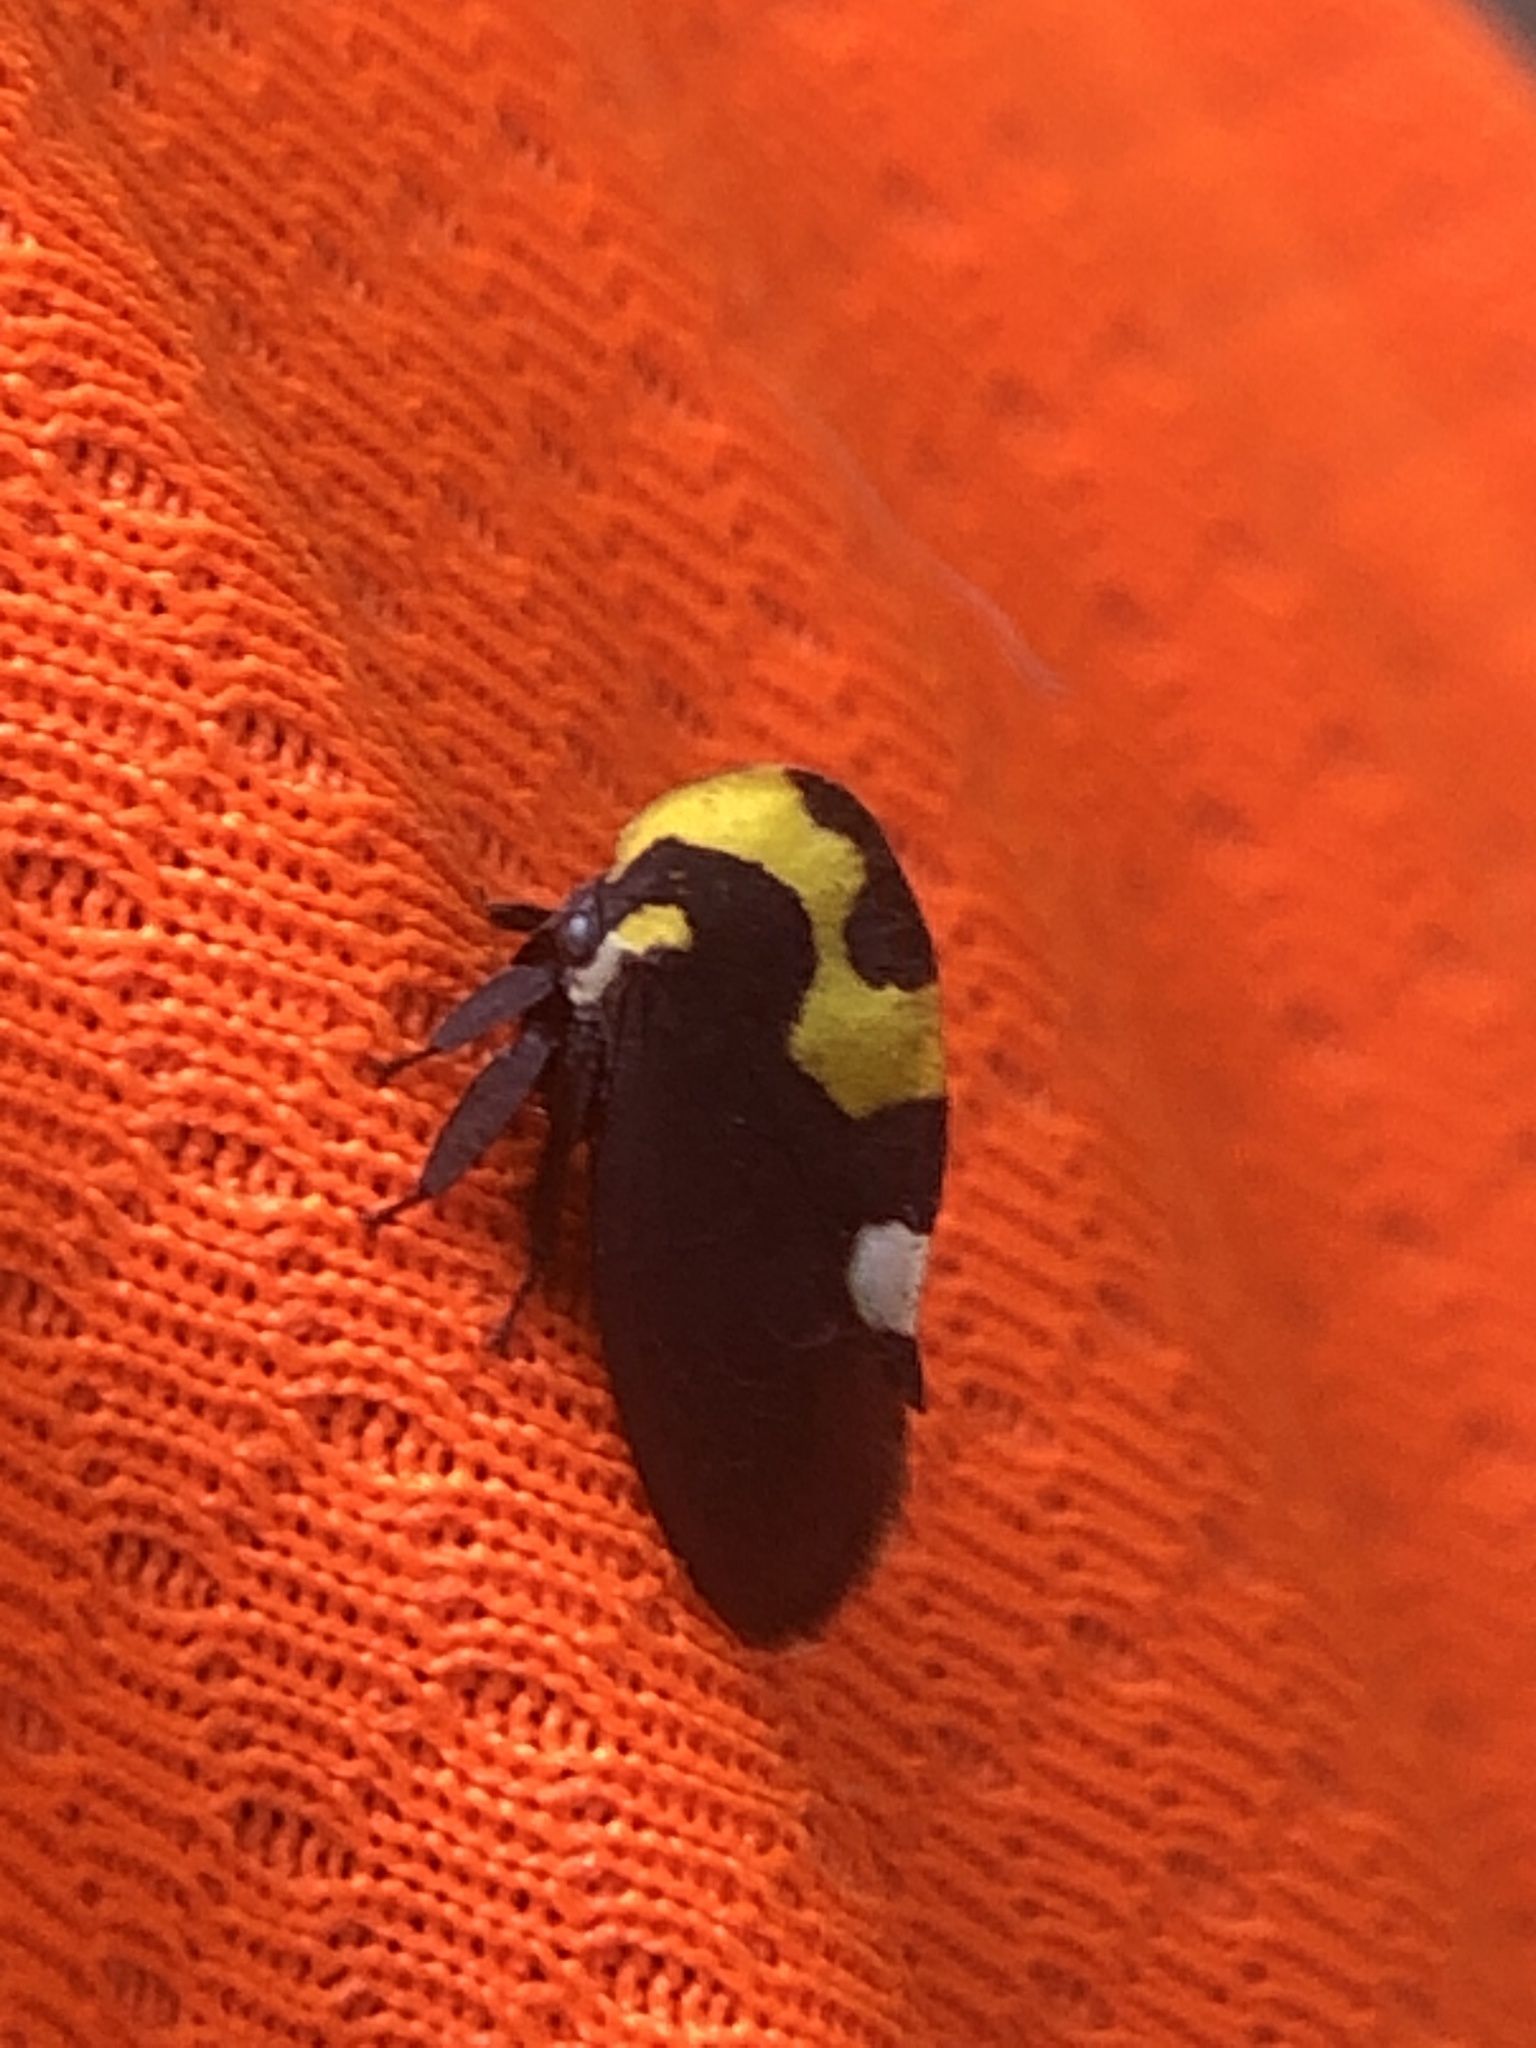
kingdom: Animalia
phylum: Arthropoda
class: Insecta
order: Hemiptera
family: Membracidae
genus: Membracis
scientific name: Membracis mexicana
